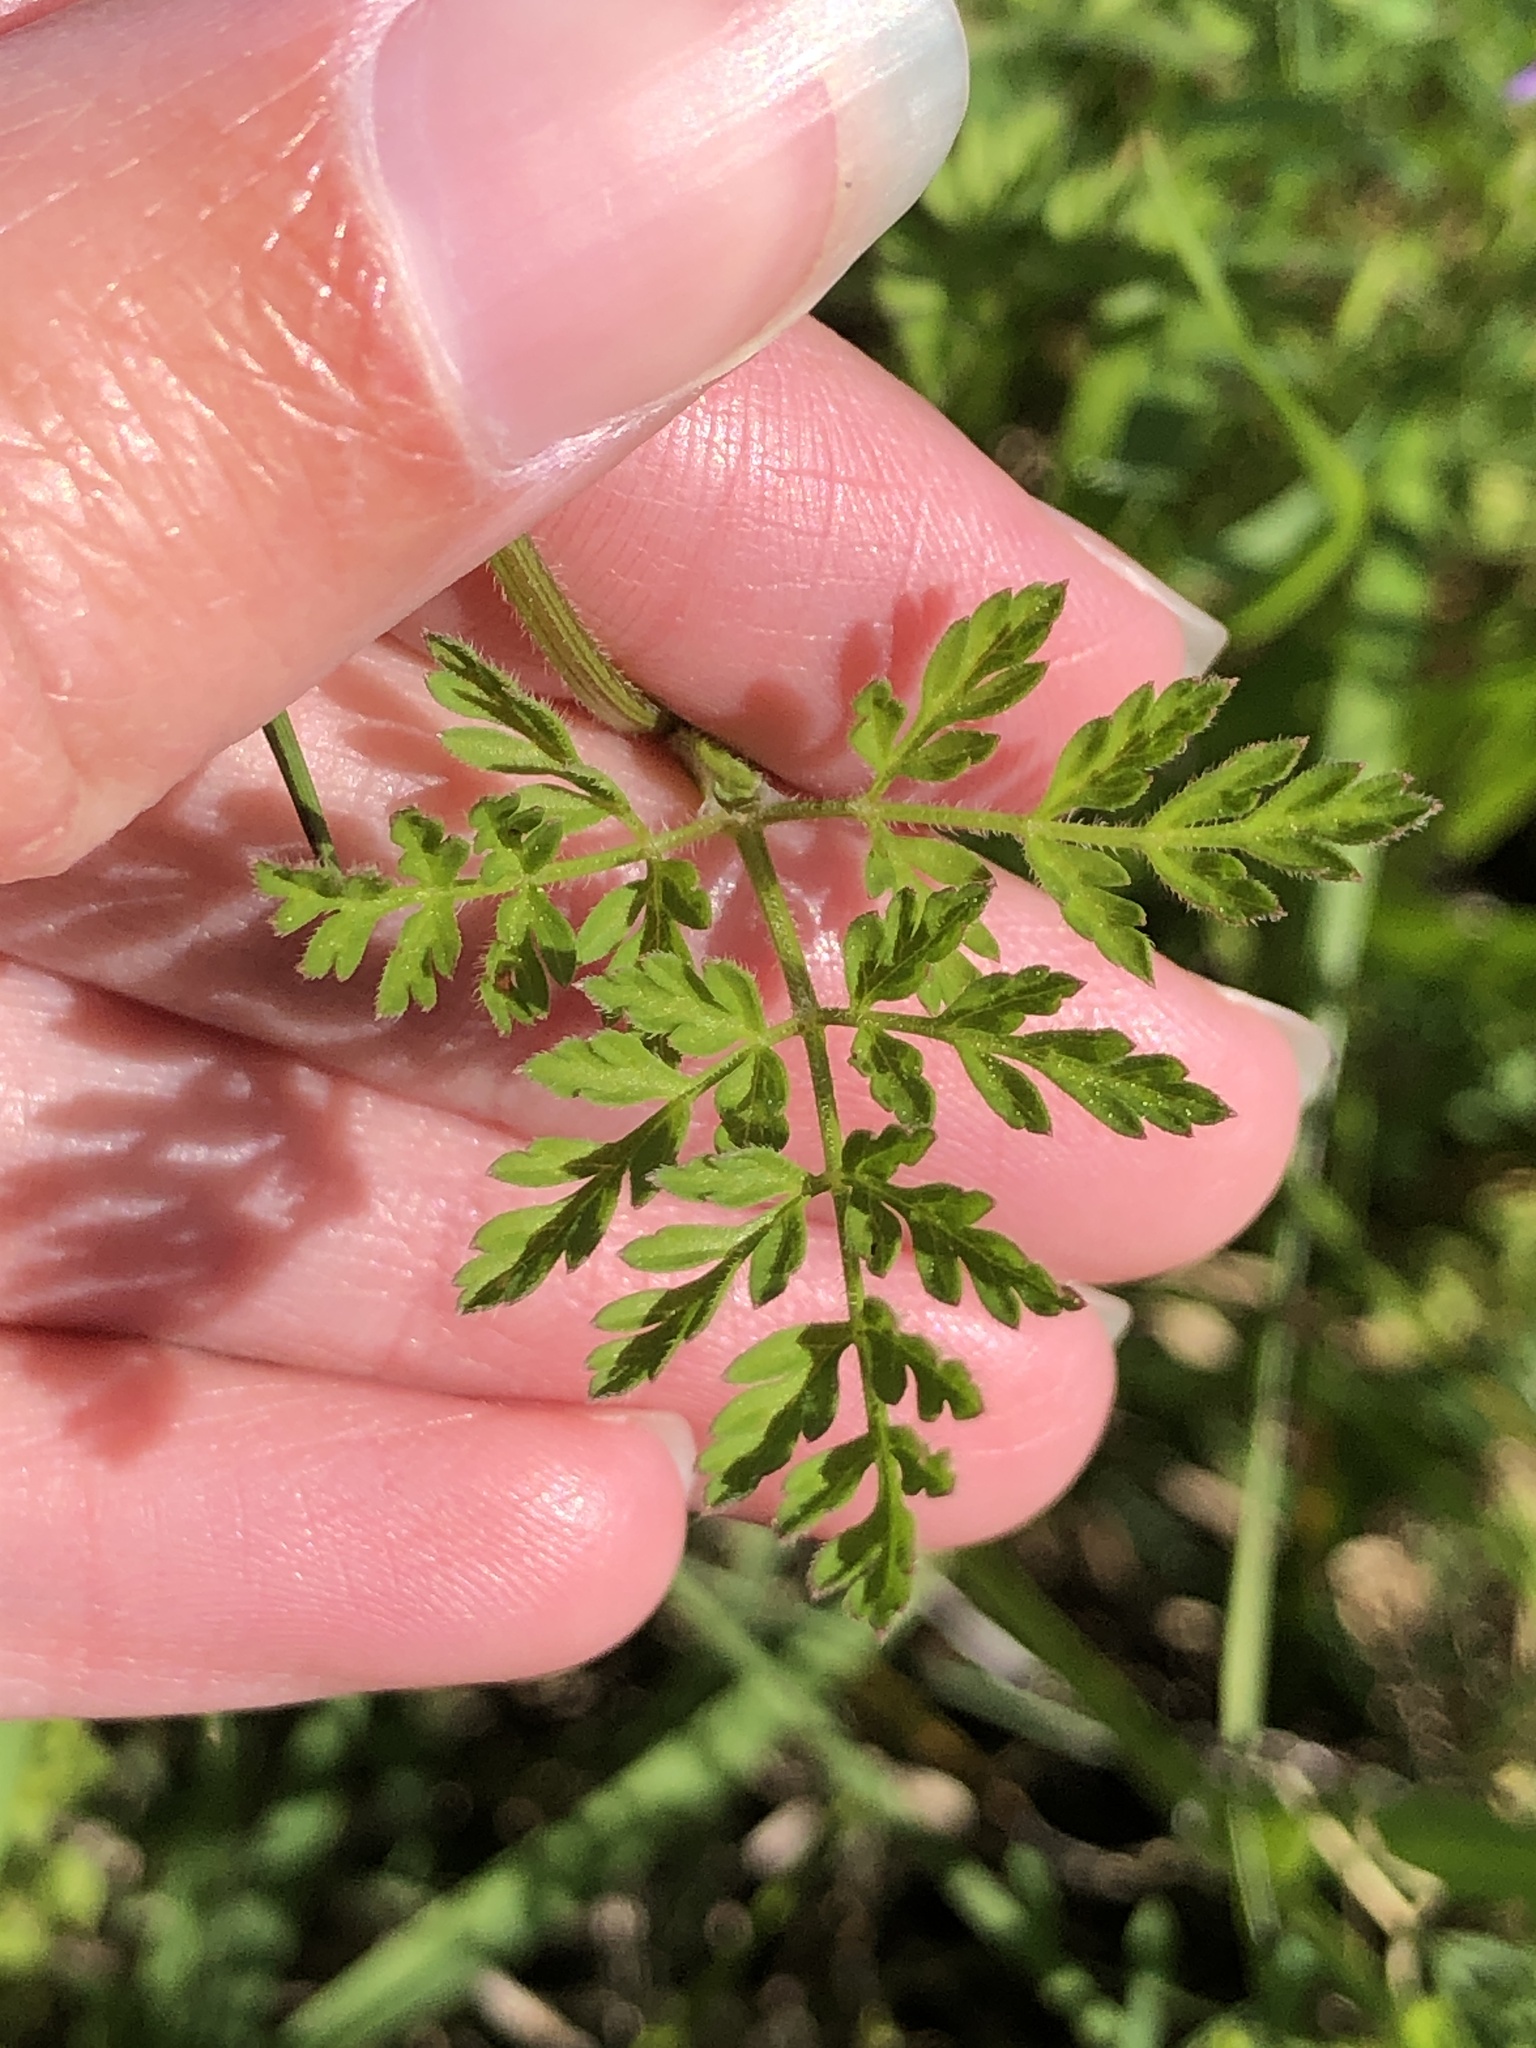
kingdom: Plantae
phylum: Tracheophyta
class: Magnoliopsida
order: Apiales
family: Apiaceae
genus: Chaerophyllum
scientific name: Chaerophyllum tainturieri
